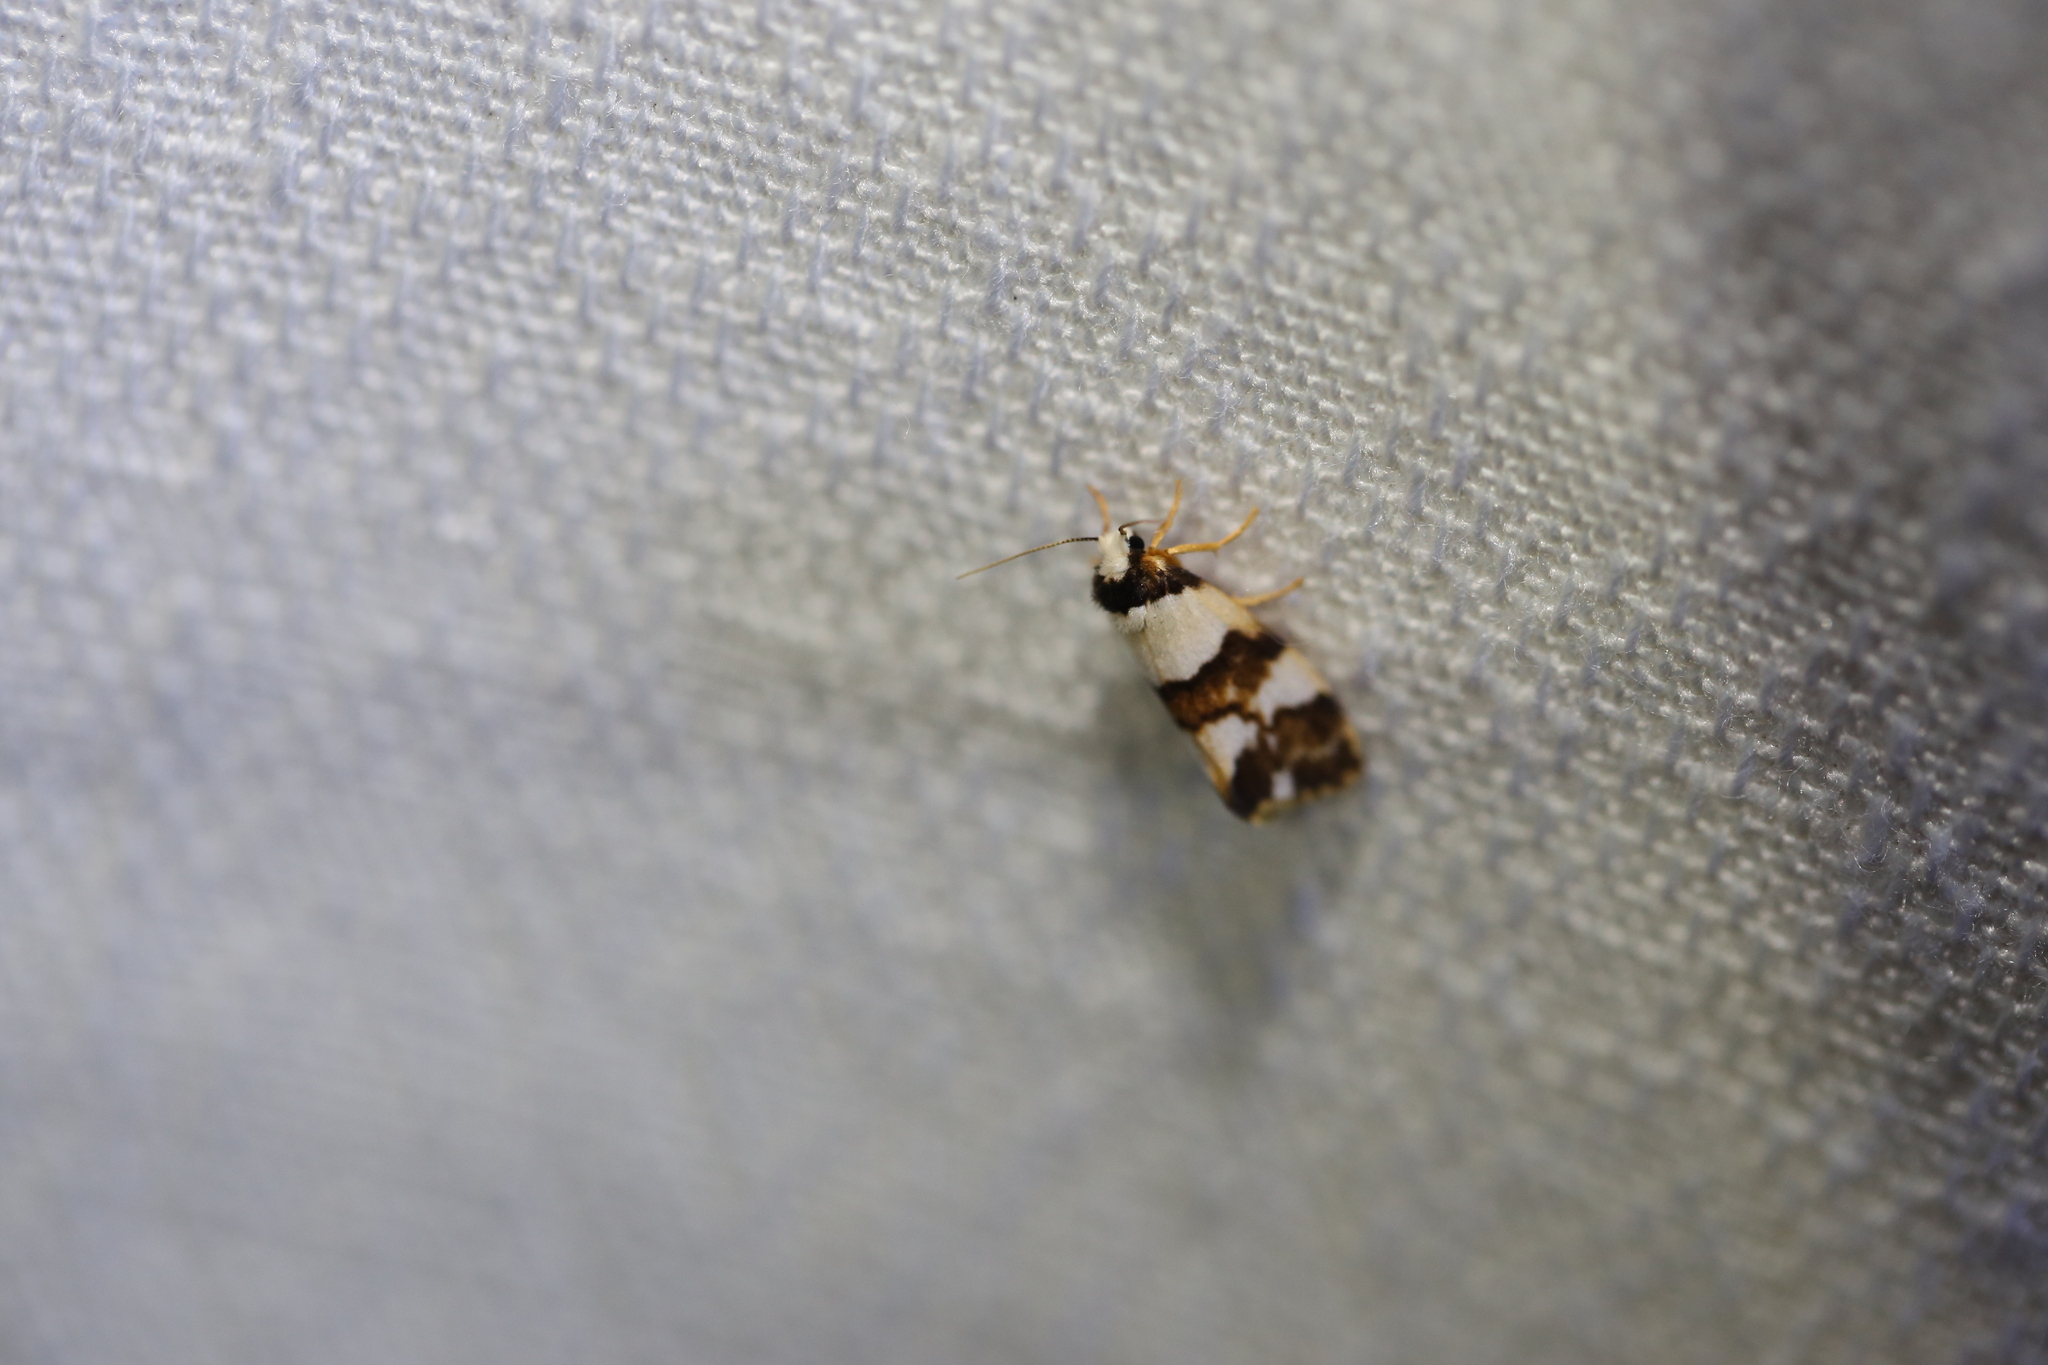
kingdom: Animalia
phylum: Arthropoda
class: Insecta
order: Lepidoptera
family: Erebidae
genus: Philenora
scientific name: Philenora aspectalella
